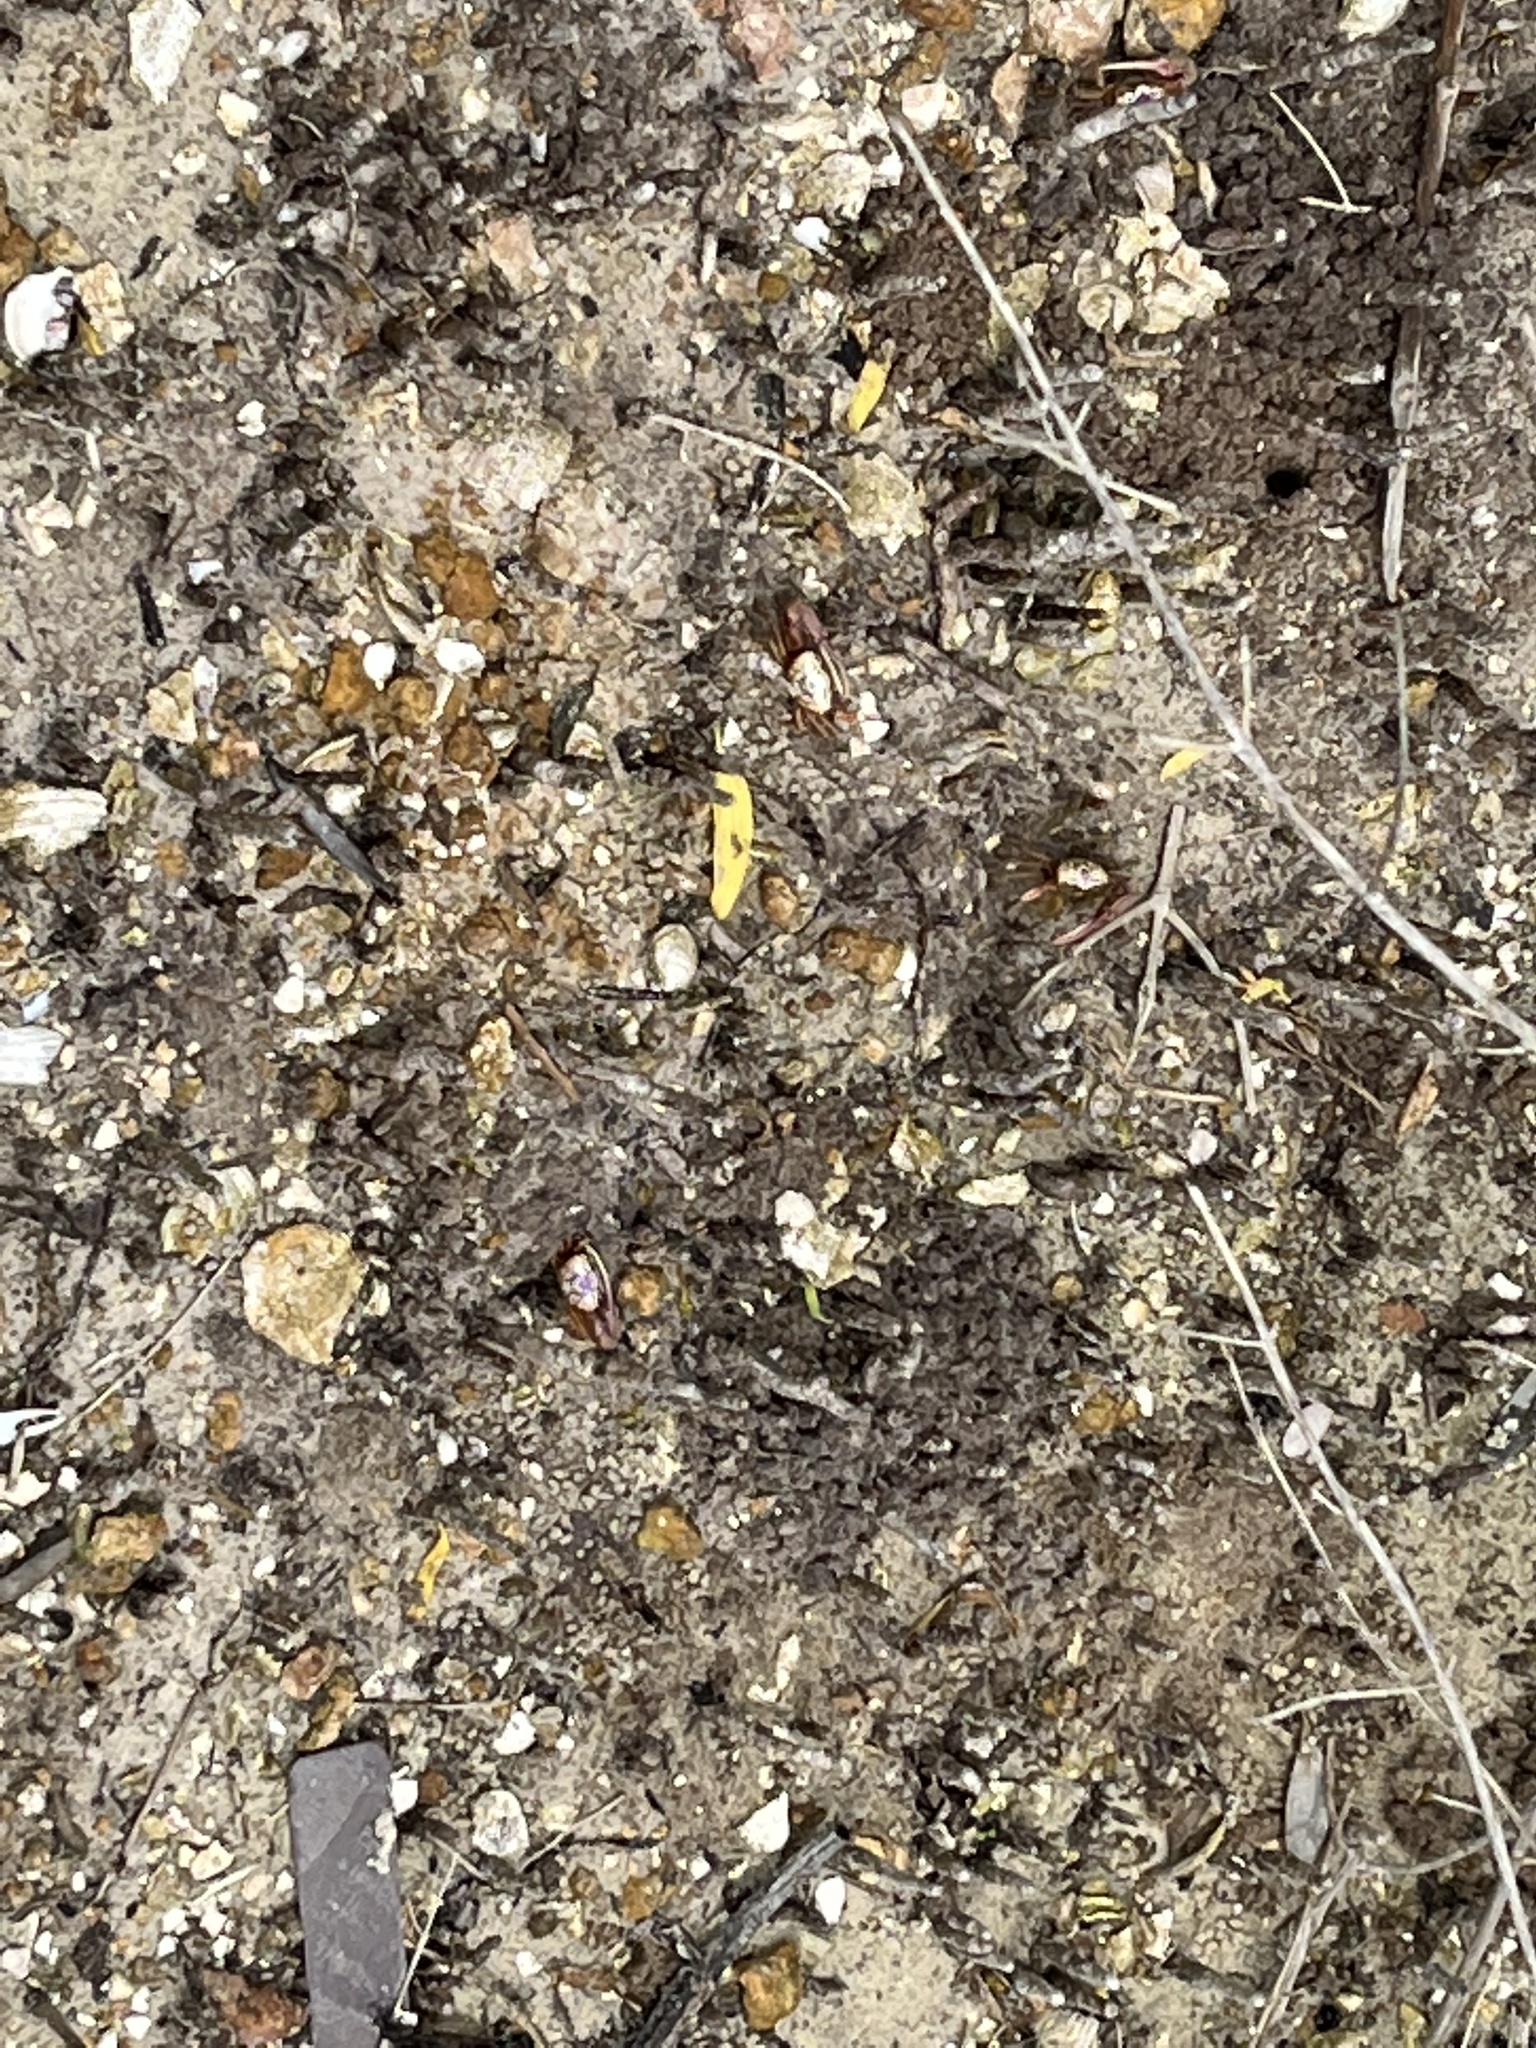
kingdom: Animalia
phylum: Arthropoda
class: Malacostraca
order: Decapoda
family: Ocypodidae
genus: Leptuca
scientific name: Leptuca pugilator
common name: Atlantic sand fiddler crab
